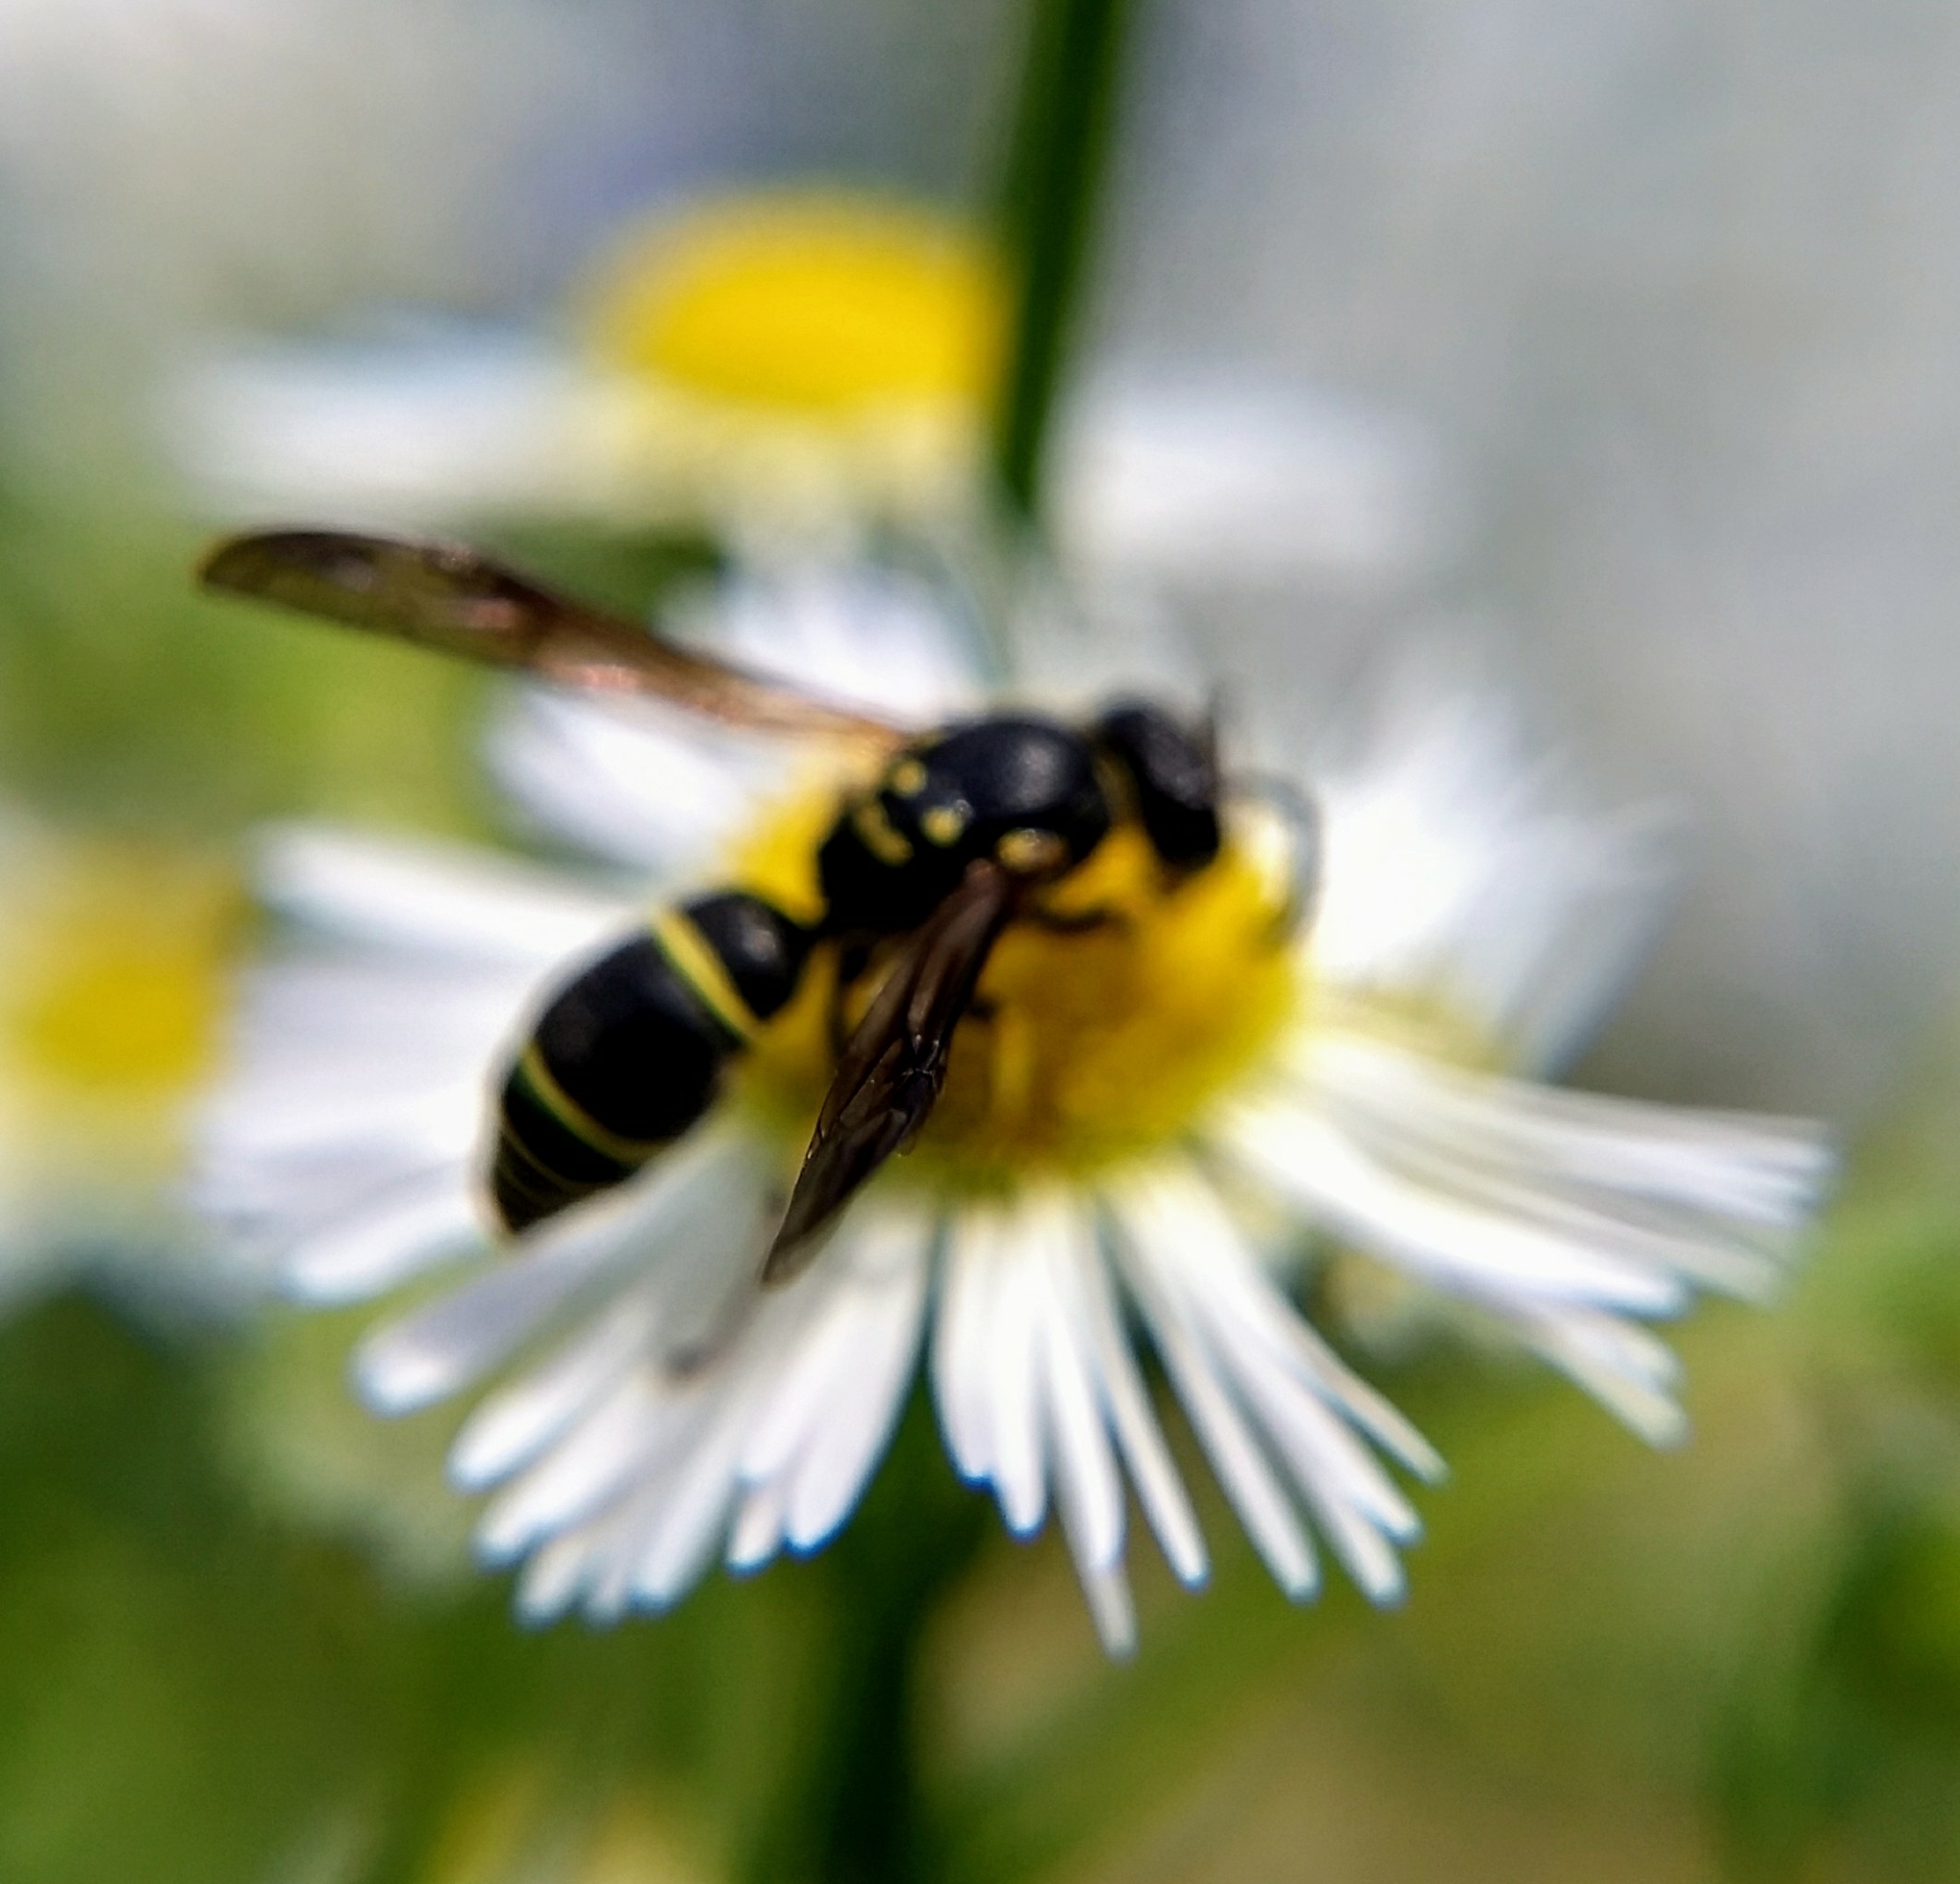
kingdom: Animalia
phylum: Arthropoda
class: Insecta
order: Hymenoptera
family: Vespidae
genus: Ancistrocerus
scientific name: Ancistrocerus adiabatus
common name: Bramble mason wasp
